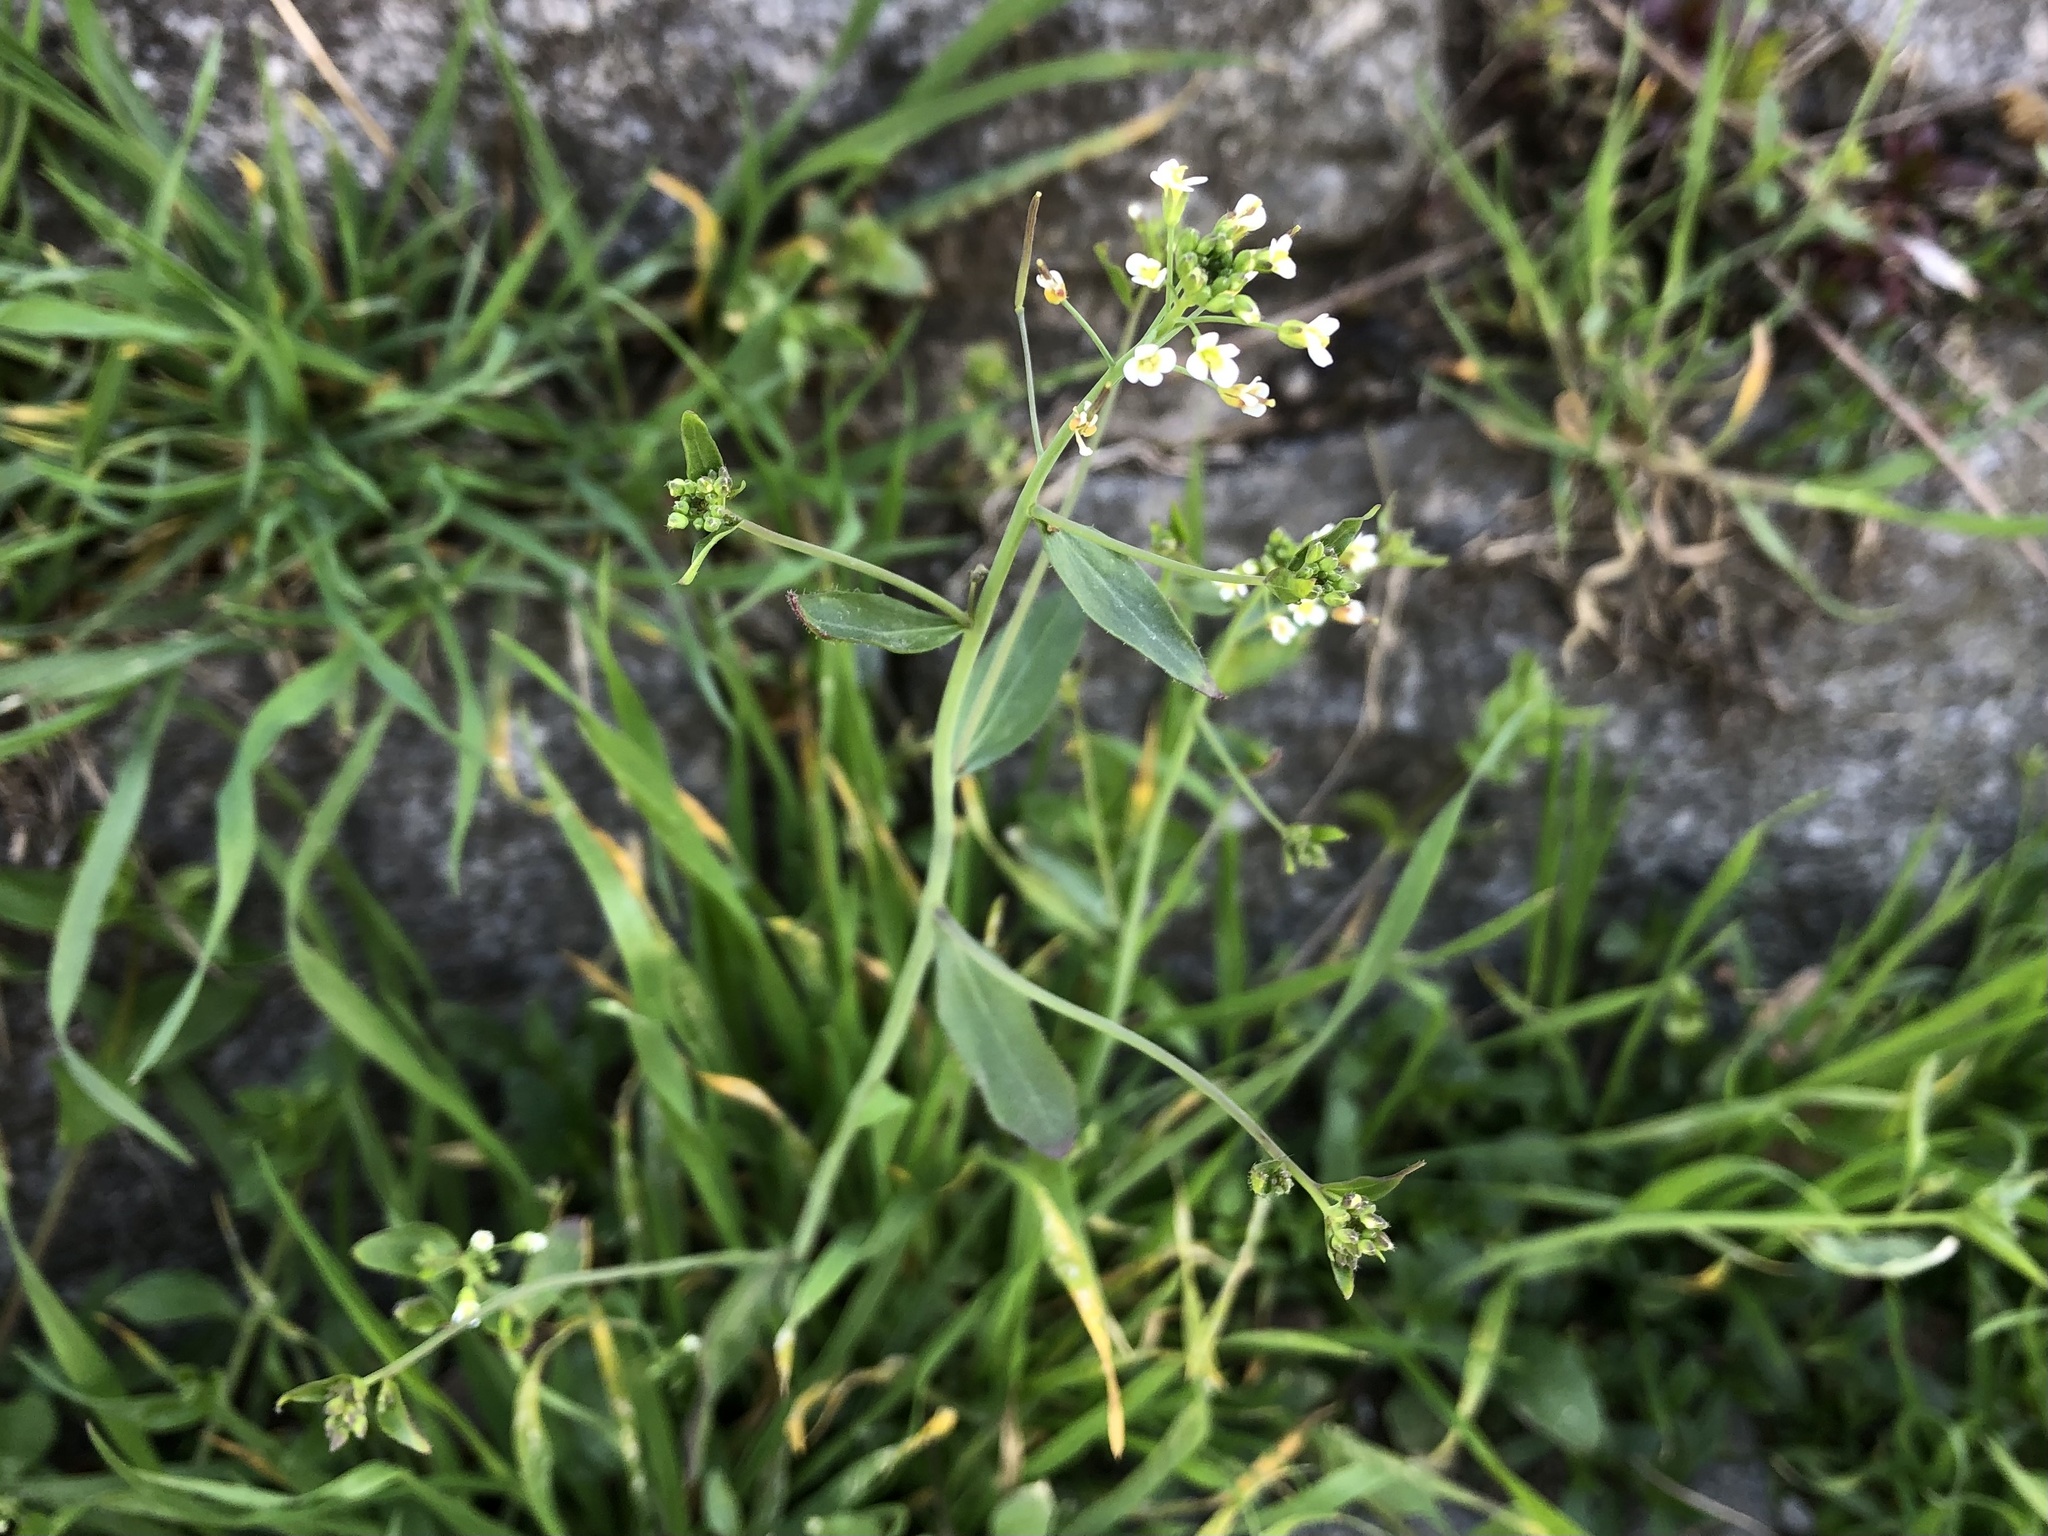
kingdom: Plantae
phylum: Tracheophyta
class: Magnoliopsida
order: Brassicales
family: Brassicaceae
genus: Arabidopsis
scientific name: Arabidopsis thaliana
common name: Thale cress
